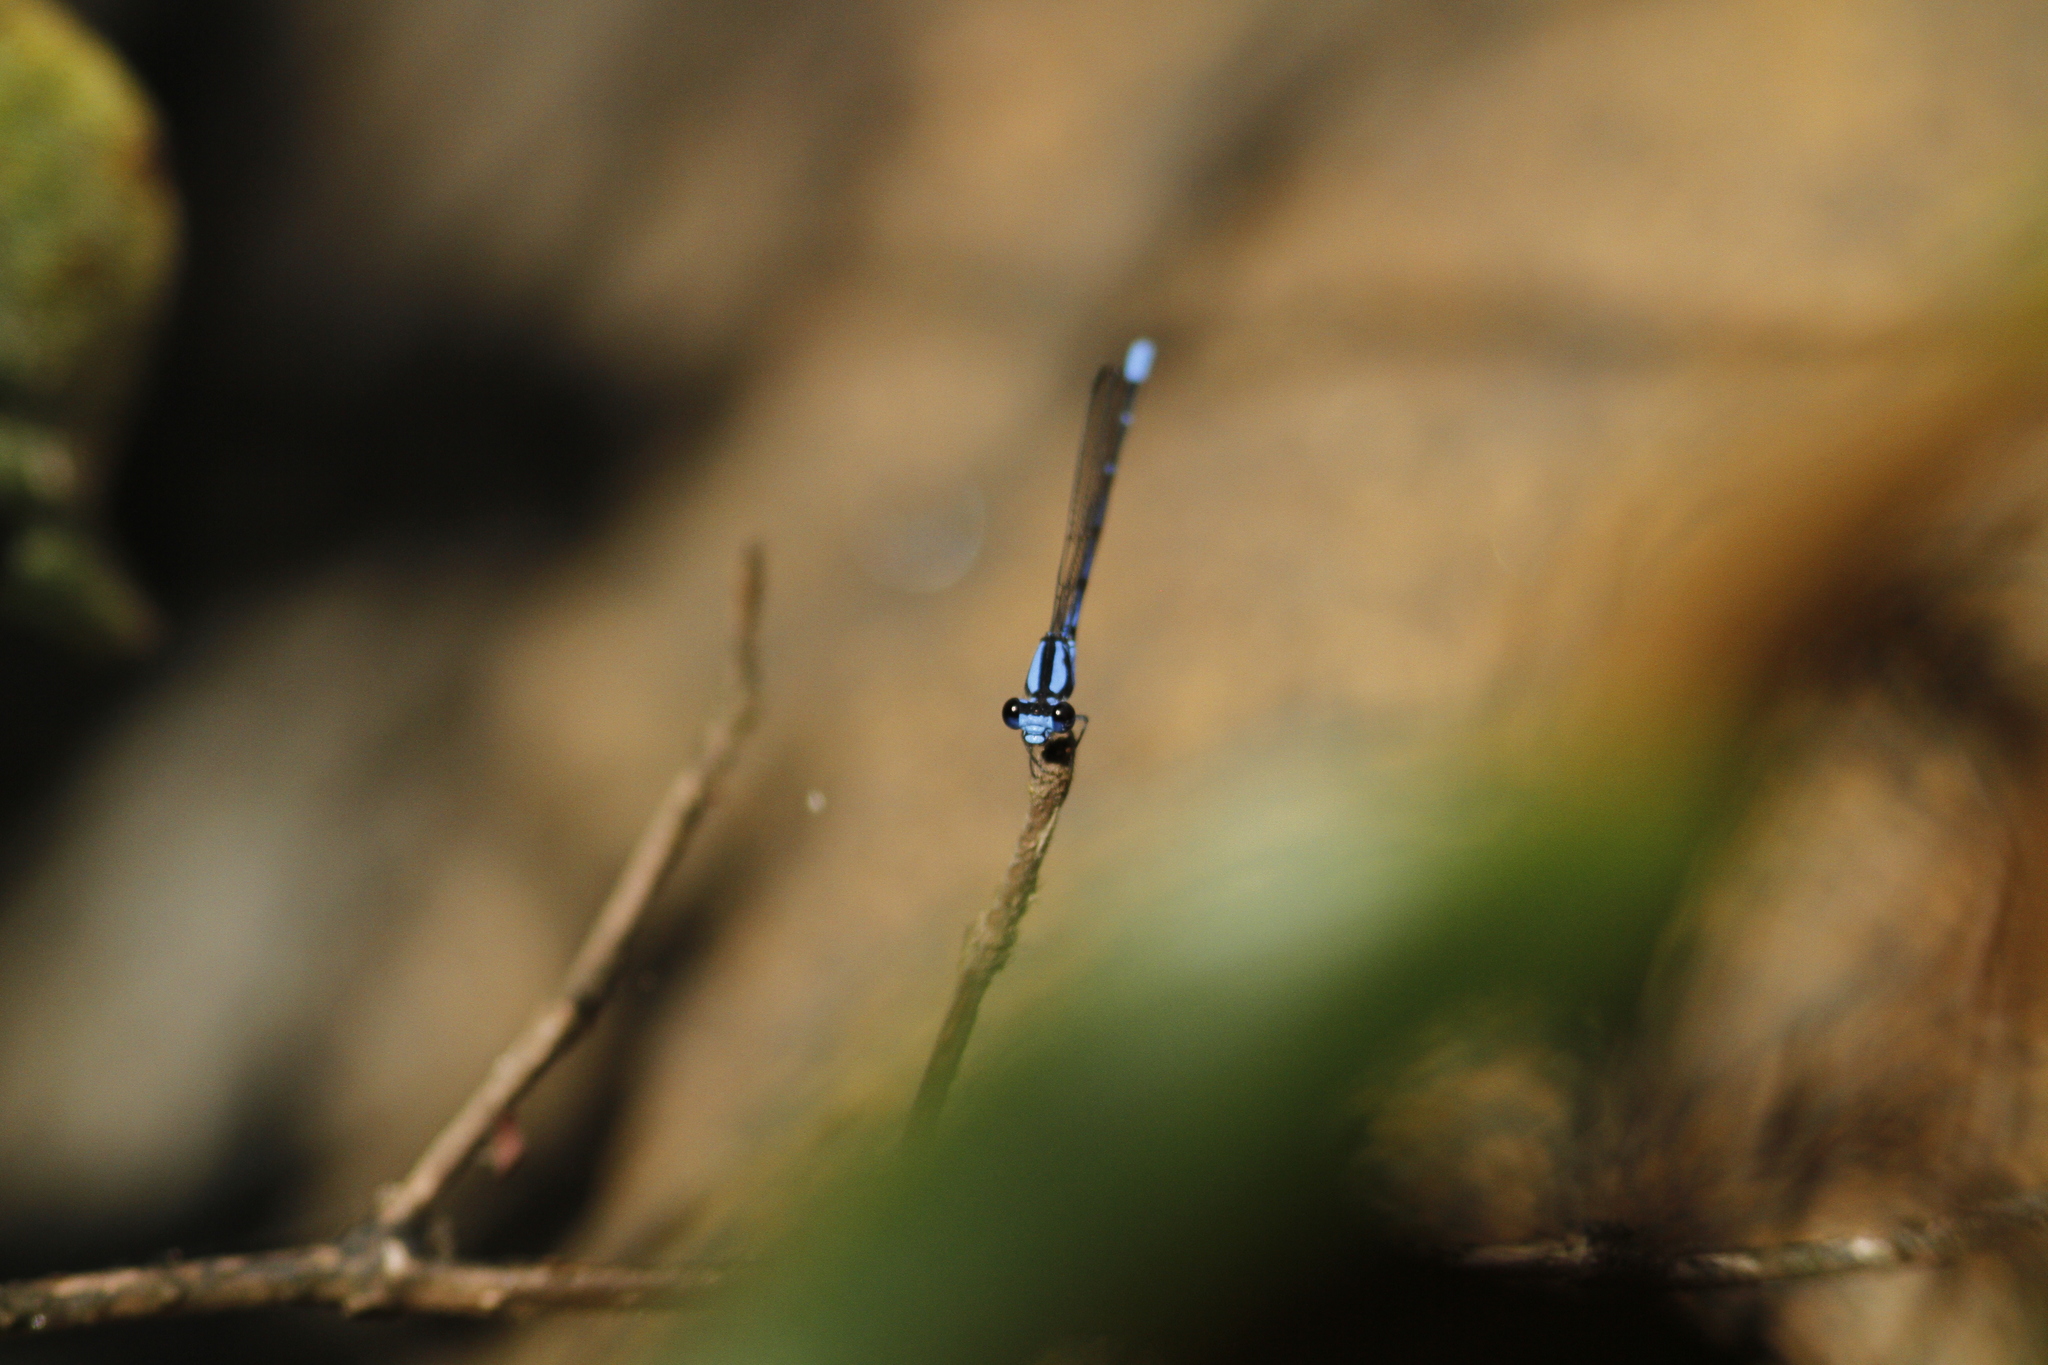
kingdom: Animalia
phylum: Arthropoda
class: Insecta
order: Odonata
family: Coenagrionidae
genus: Argia
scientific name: Argia insipida
